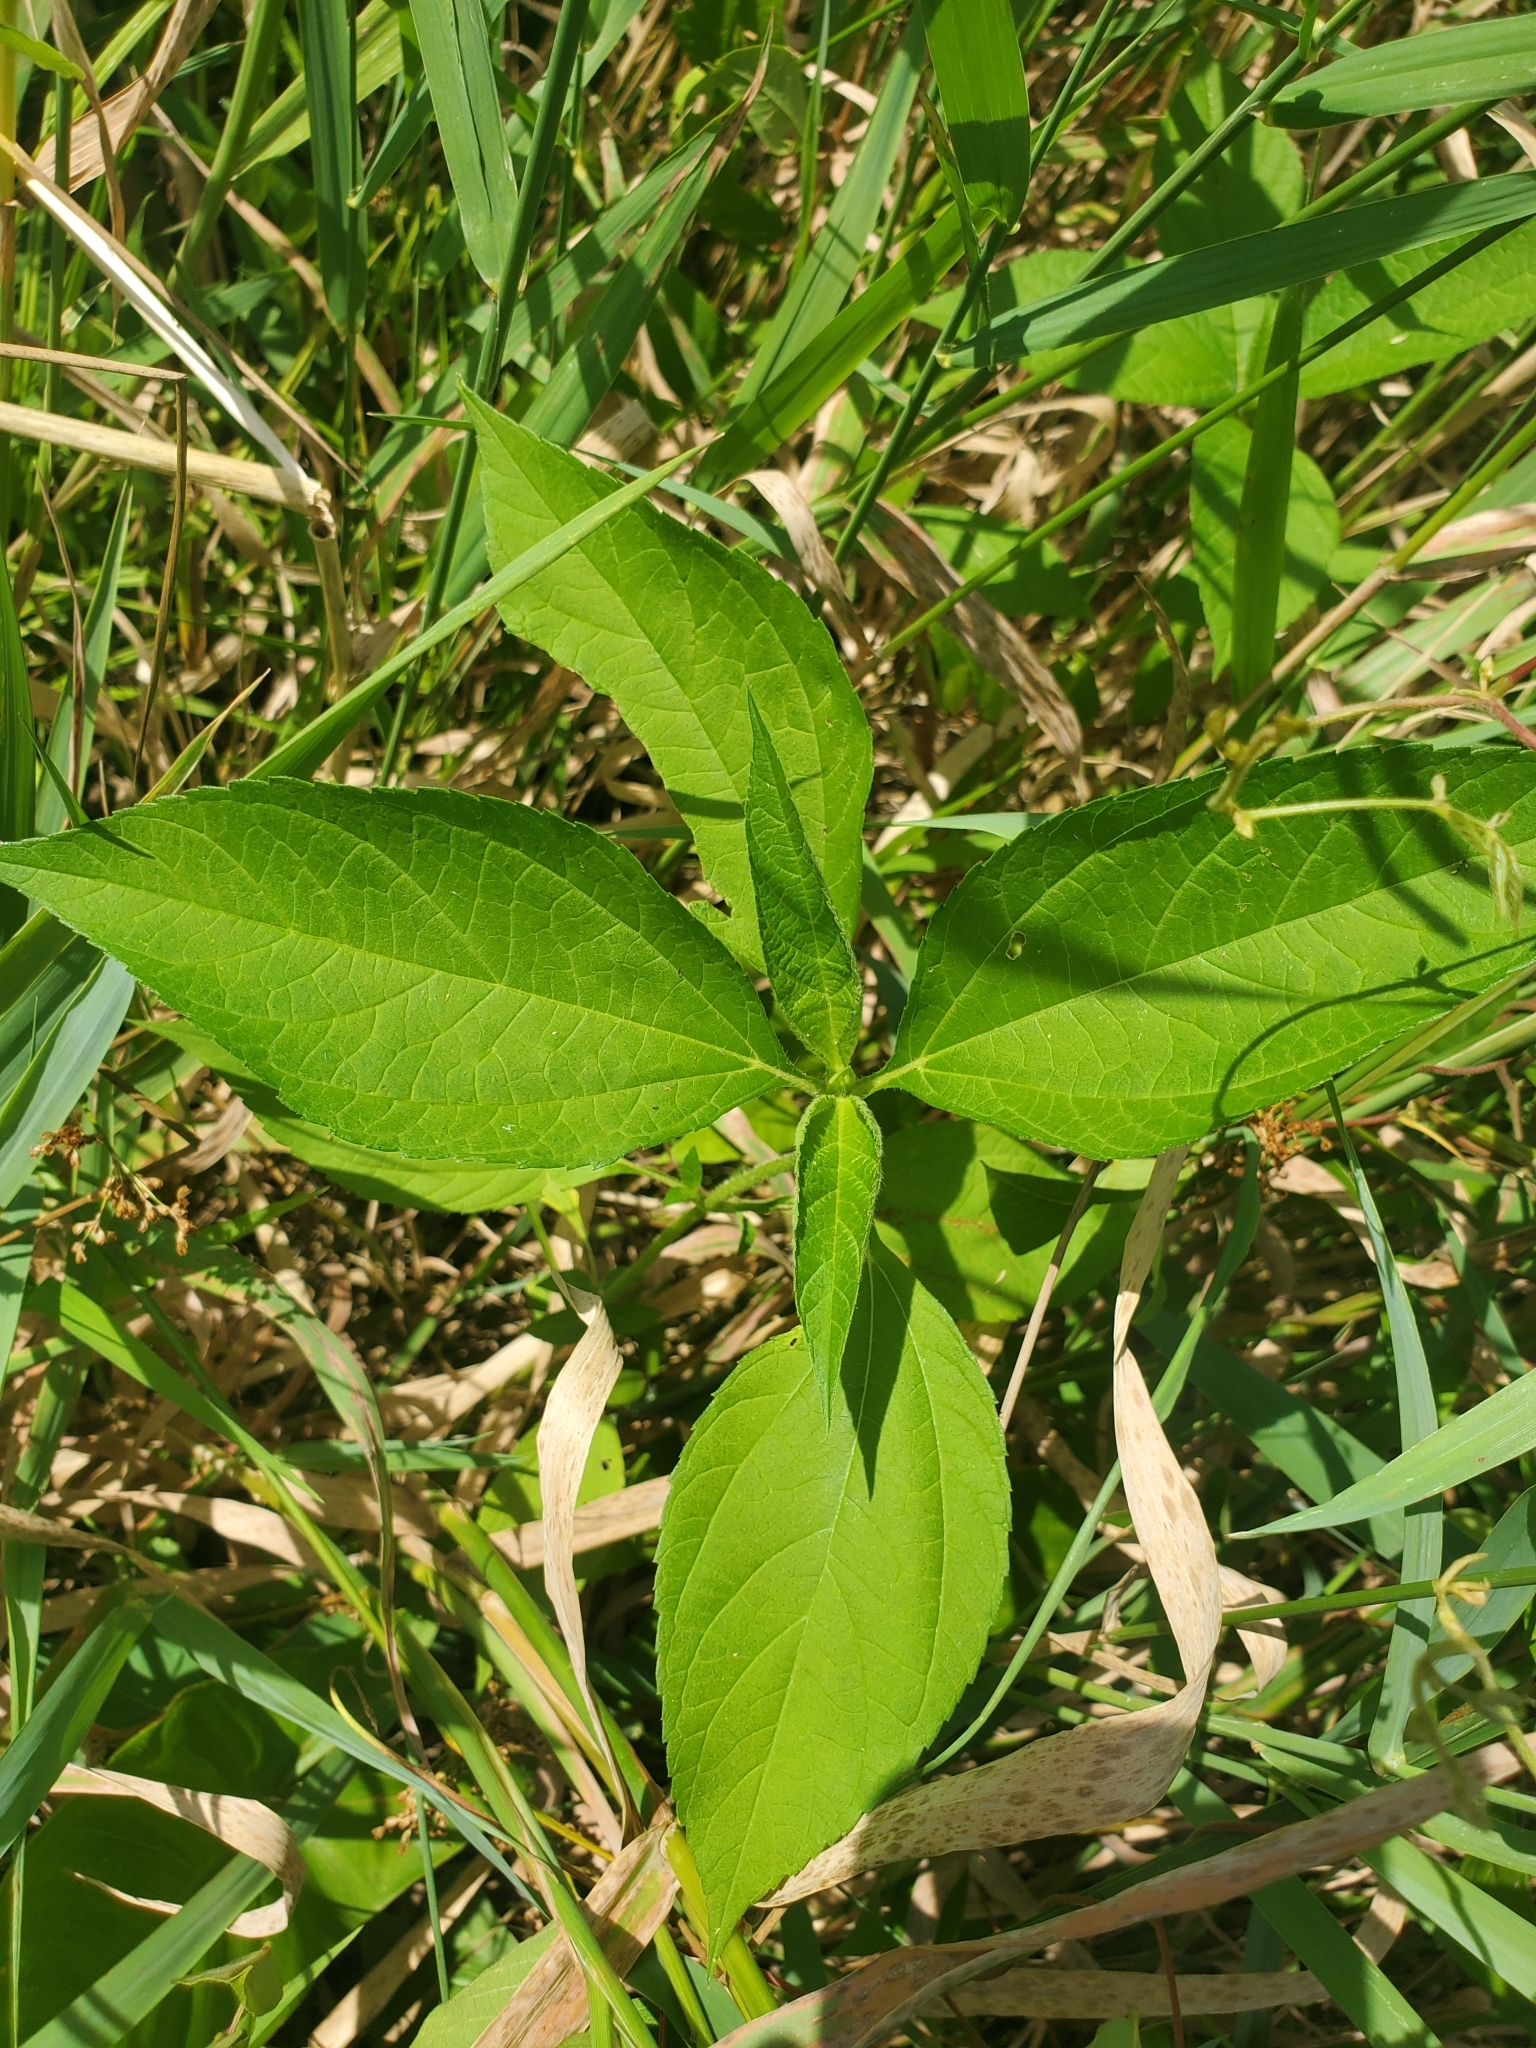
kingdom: Plantae
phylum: Tracheophyta
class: Magnoliopsida
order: Asterales
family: Asteraceae
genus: Ambrosia
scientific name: Ambrosia trifida
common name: Giant ragweed
